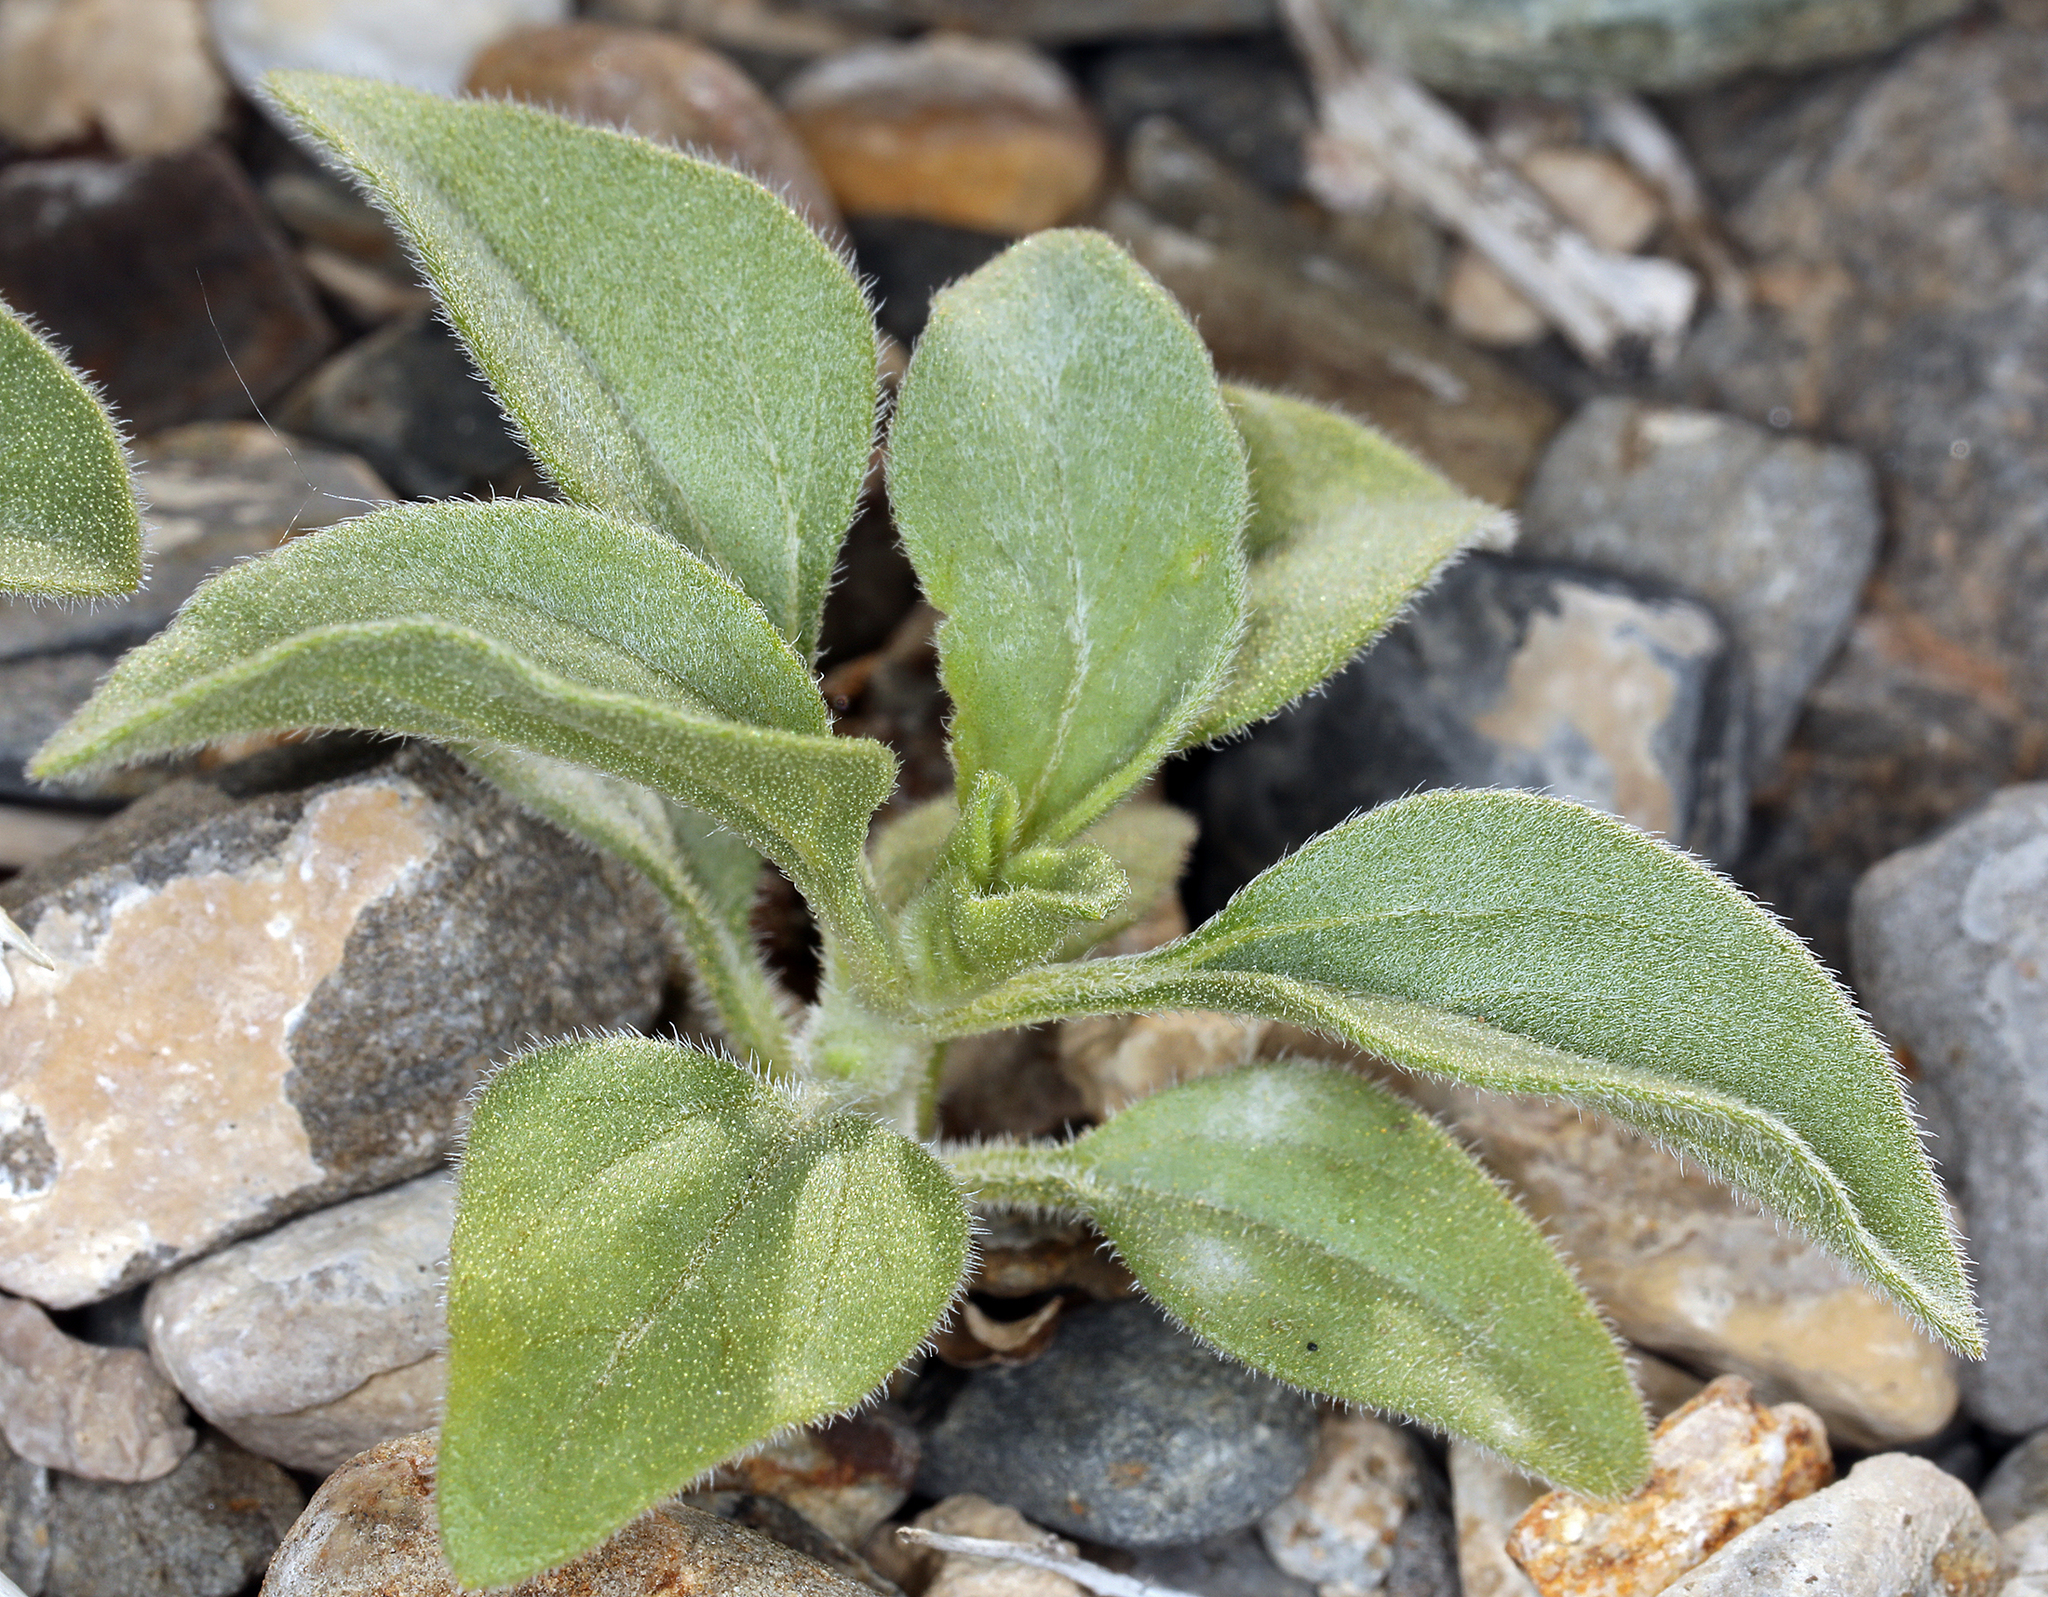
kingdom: Plantae
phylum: Tracheophyta
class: Magnoliopsida
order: Asterales
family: Asteraceae
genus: Encelia
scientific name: Encelia actoni
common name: Acton encelia
